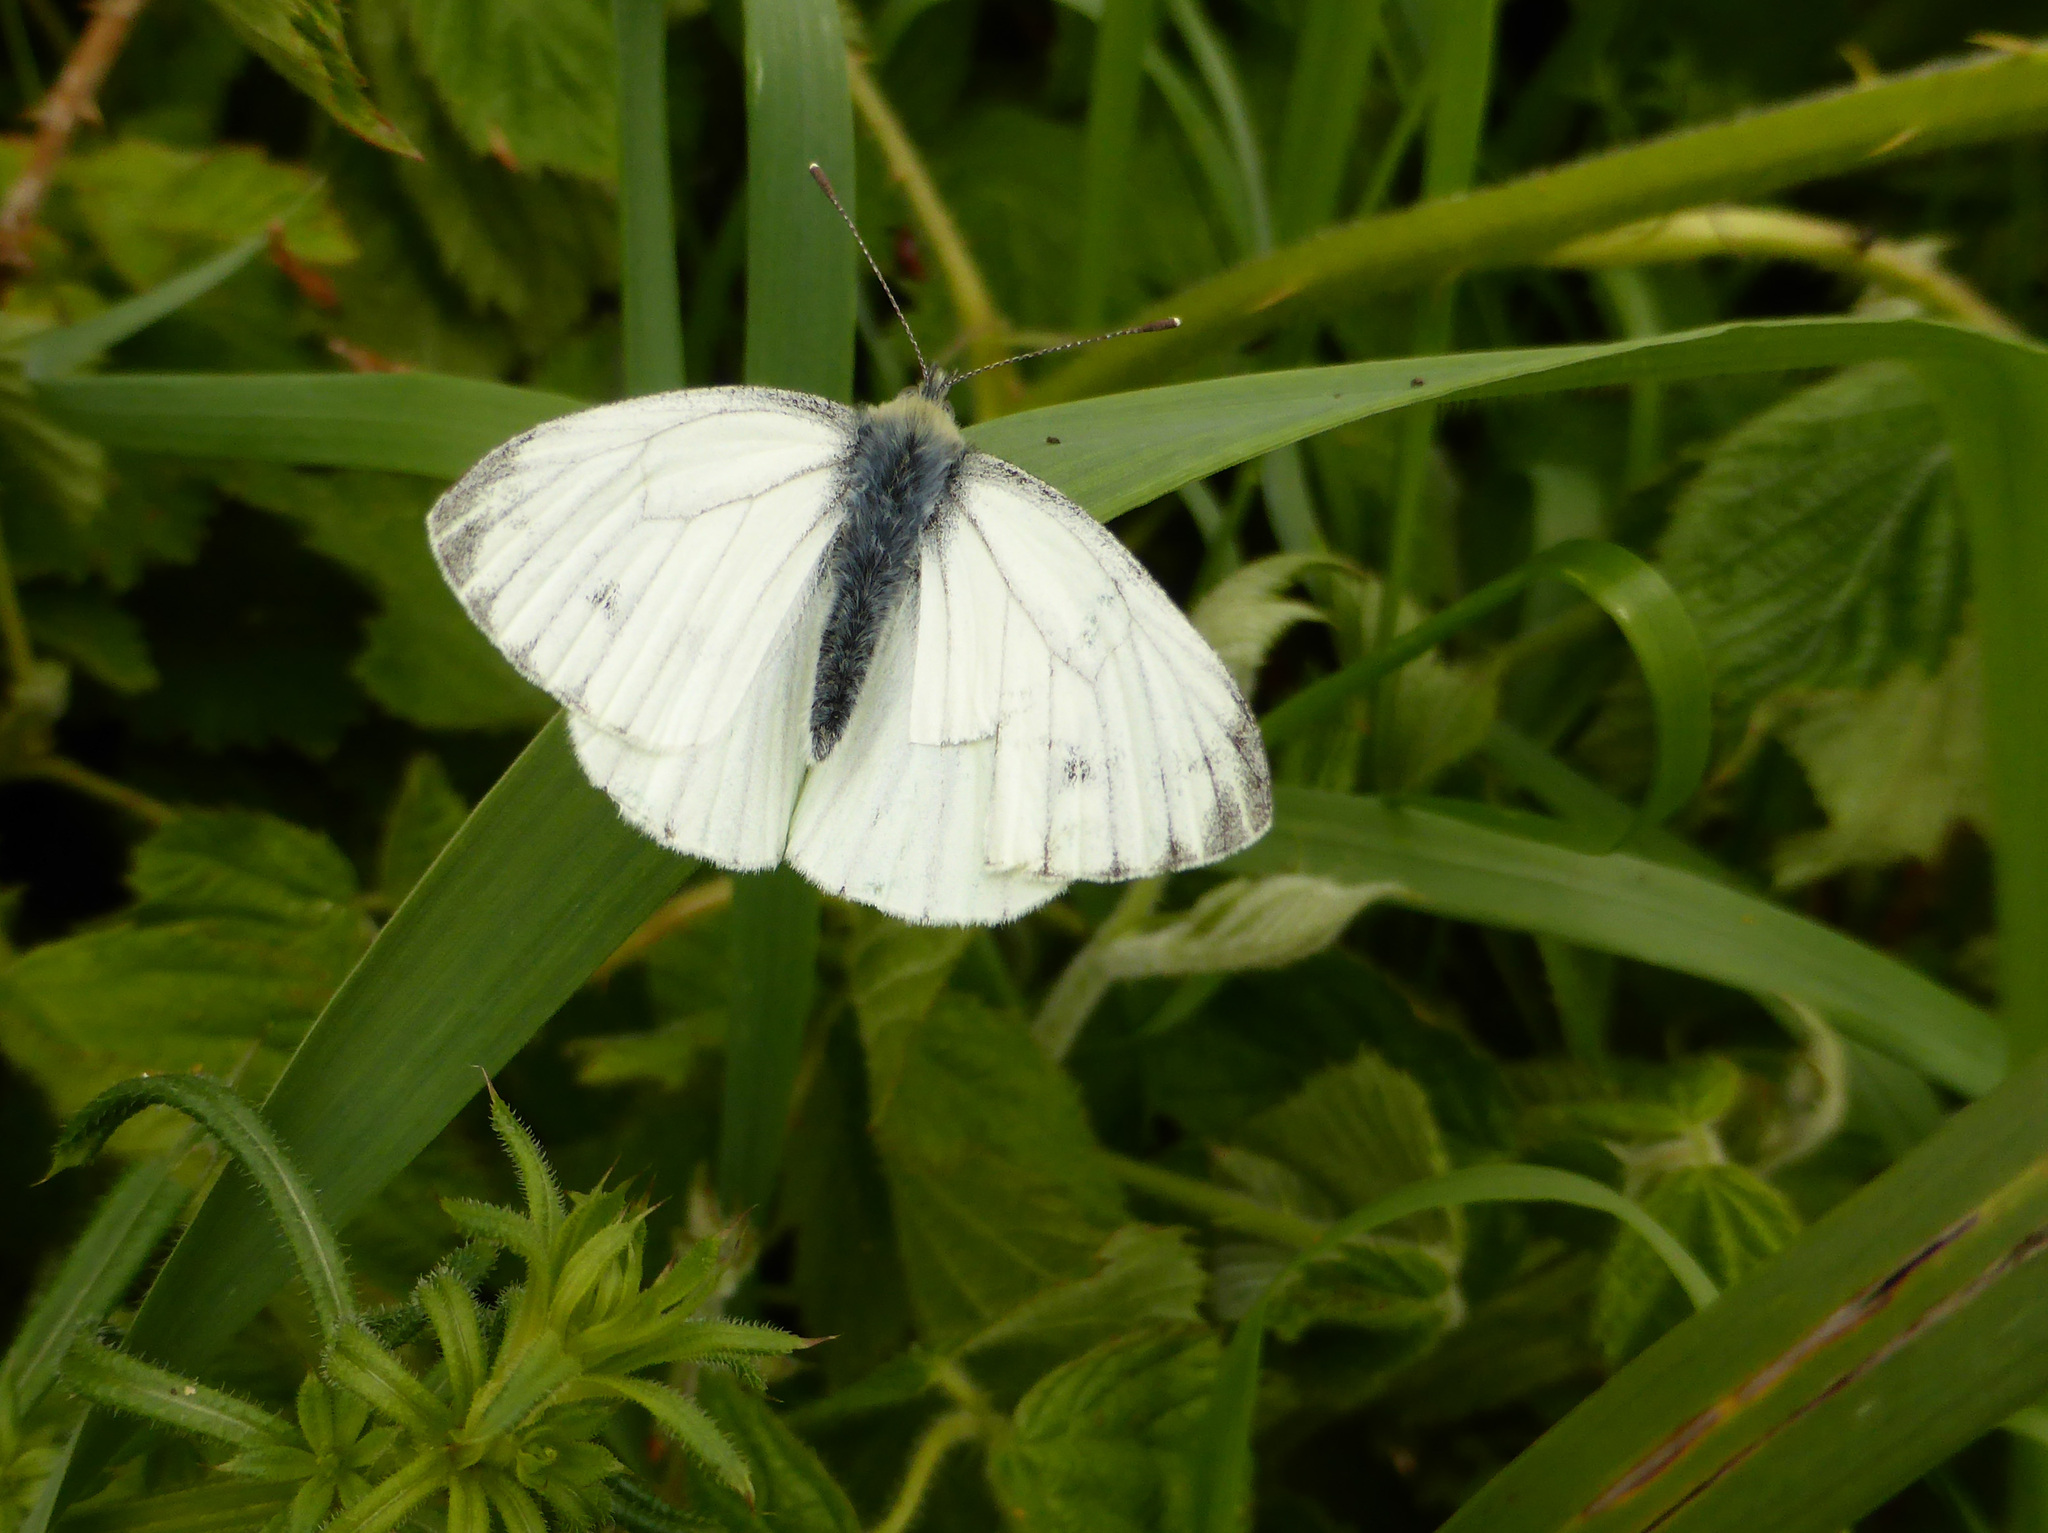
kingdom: Animalia
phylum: Arthropoda
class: Insecta
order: Lepidoptera
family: Pieridae
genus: Pieris
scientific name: Pieris napi
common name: Green-veined white
